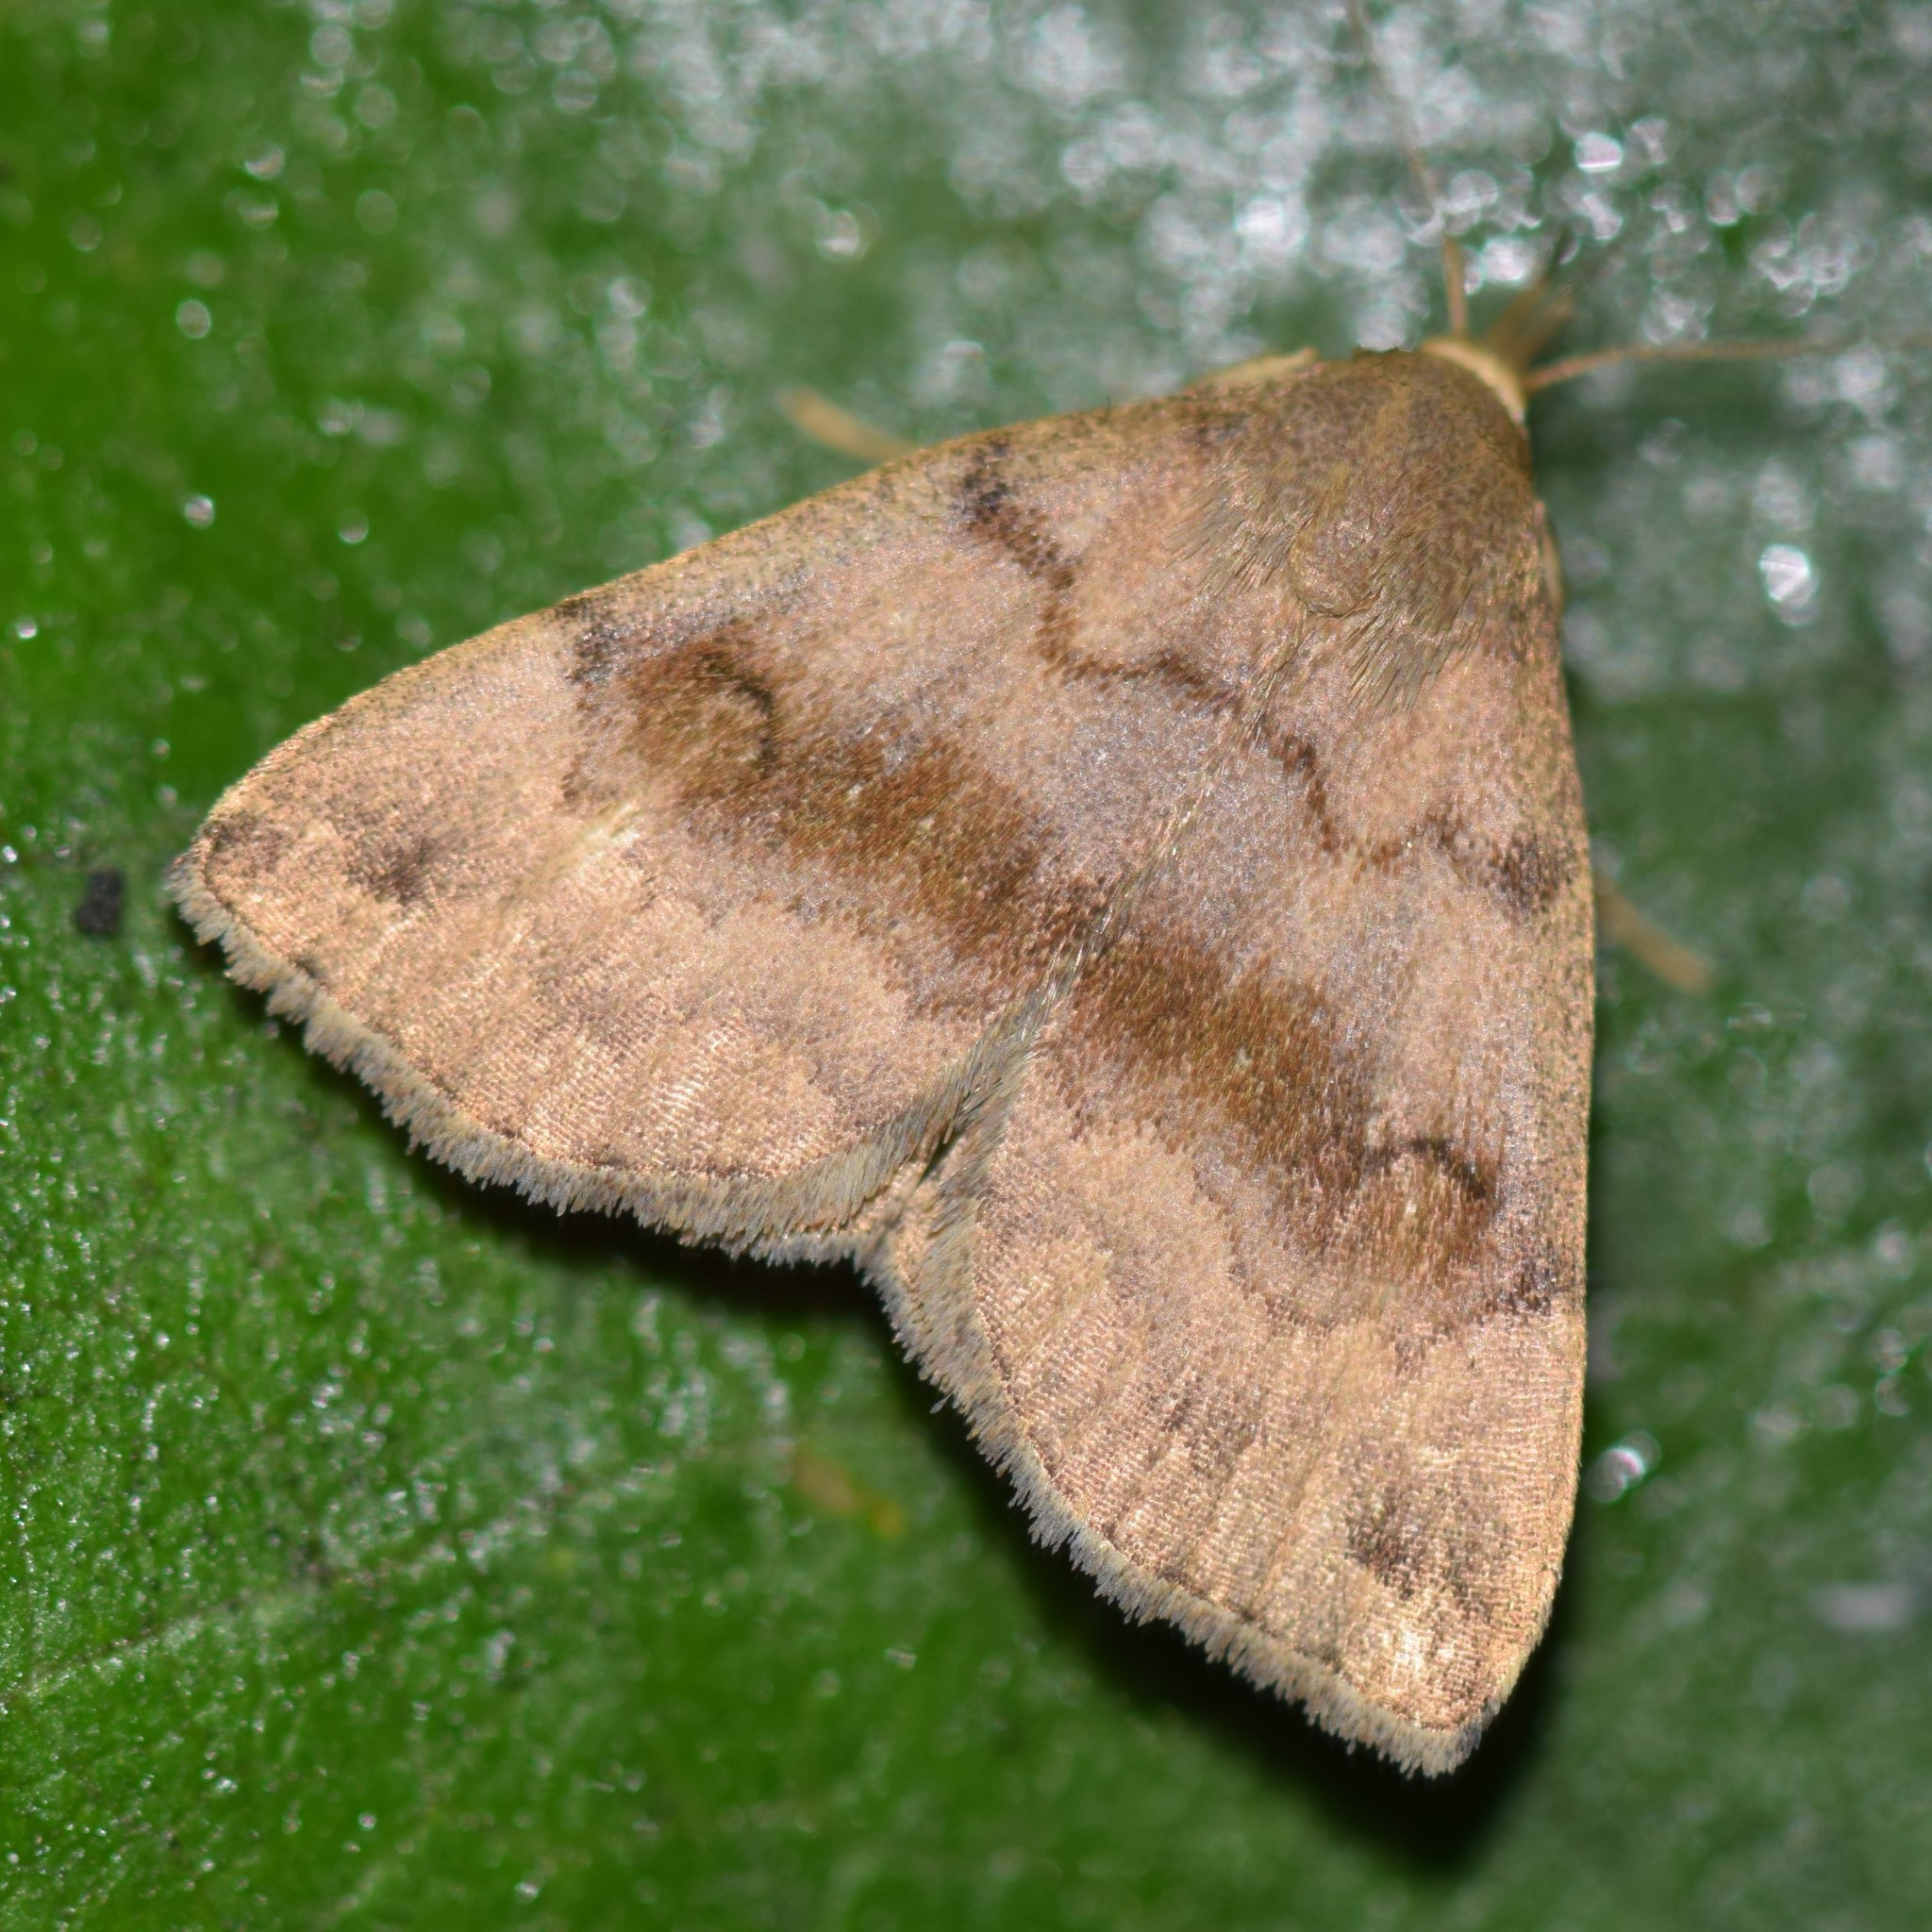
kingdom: Animalia
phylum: Arthropoda
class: Insecta
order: Lepidoptera
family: Erebidae
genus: Phalaenostola
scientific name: Phalaenostola eumelusalis
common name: Dark phalaenostola moth
